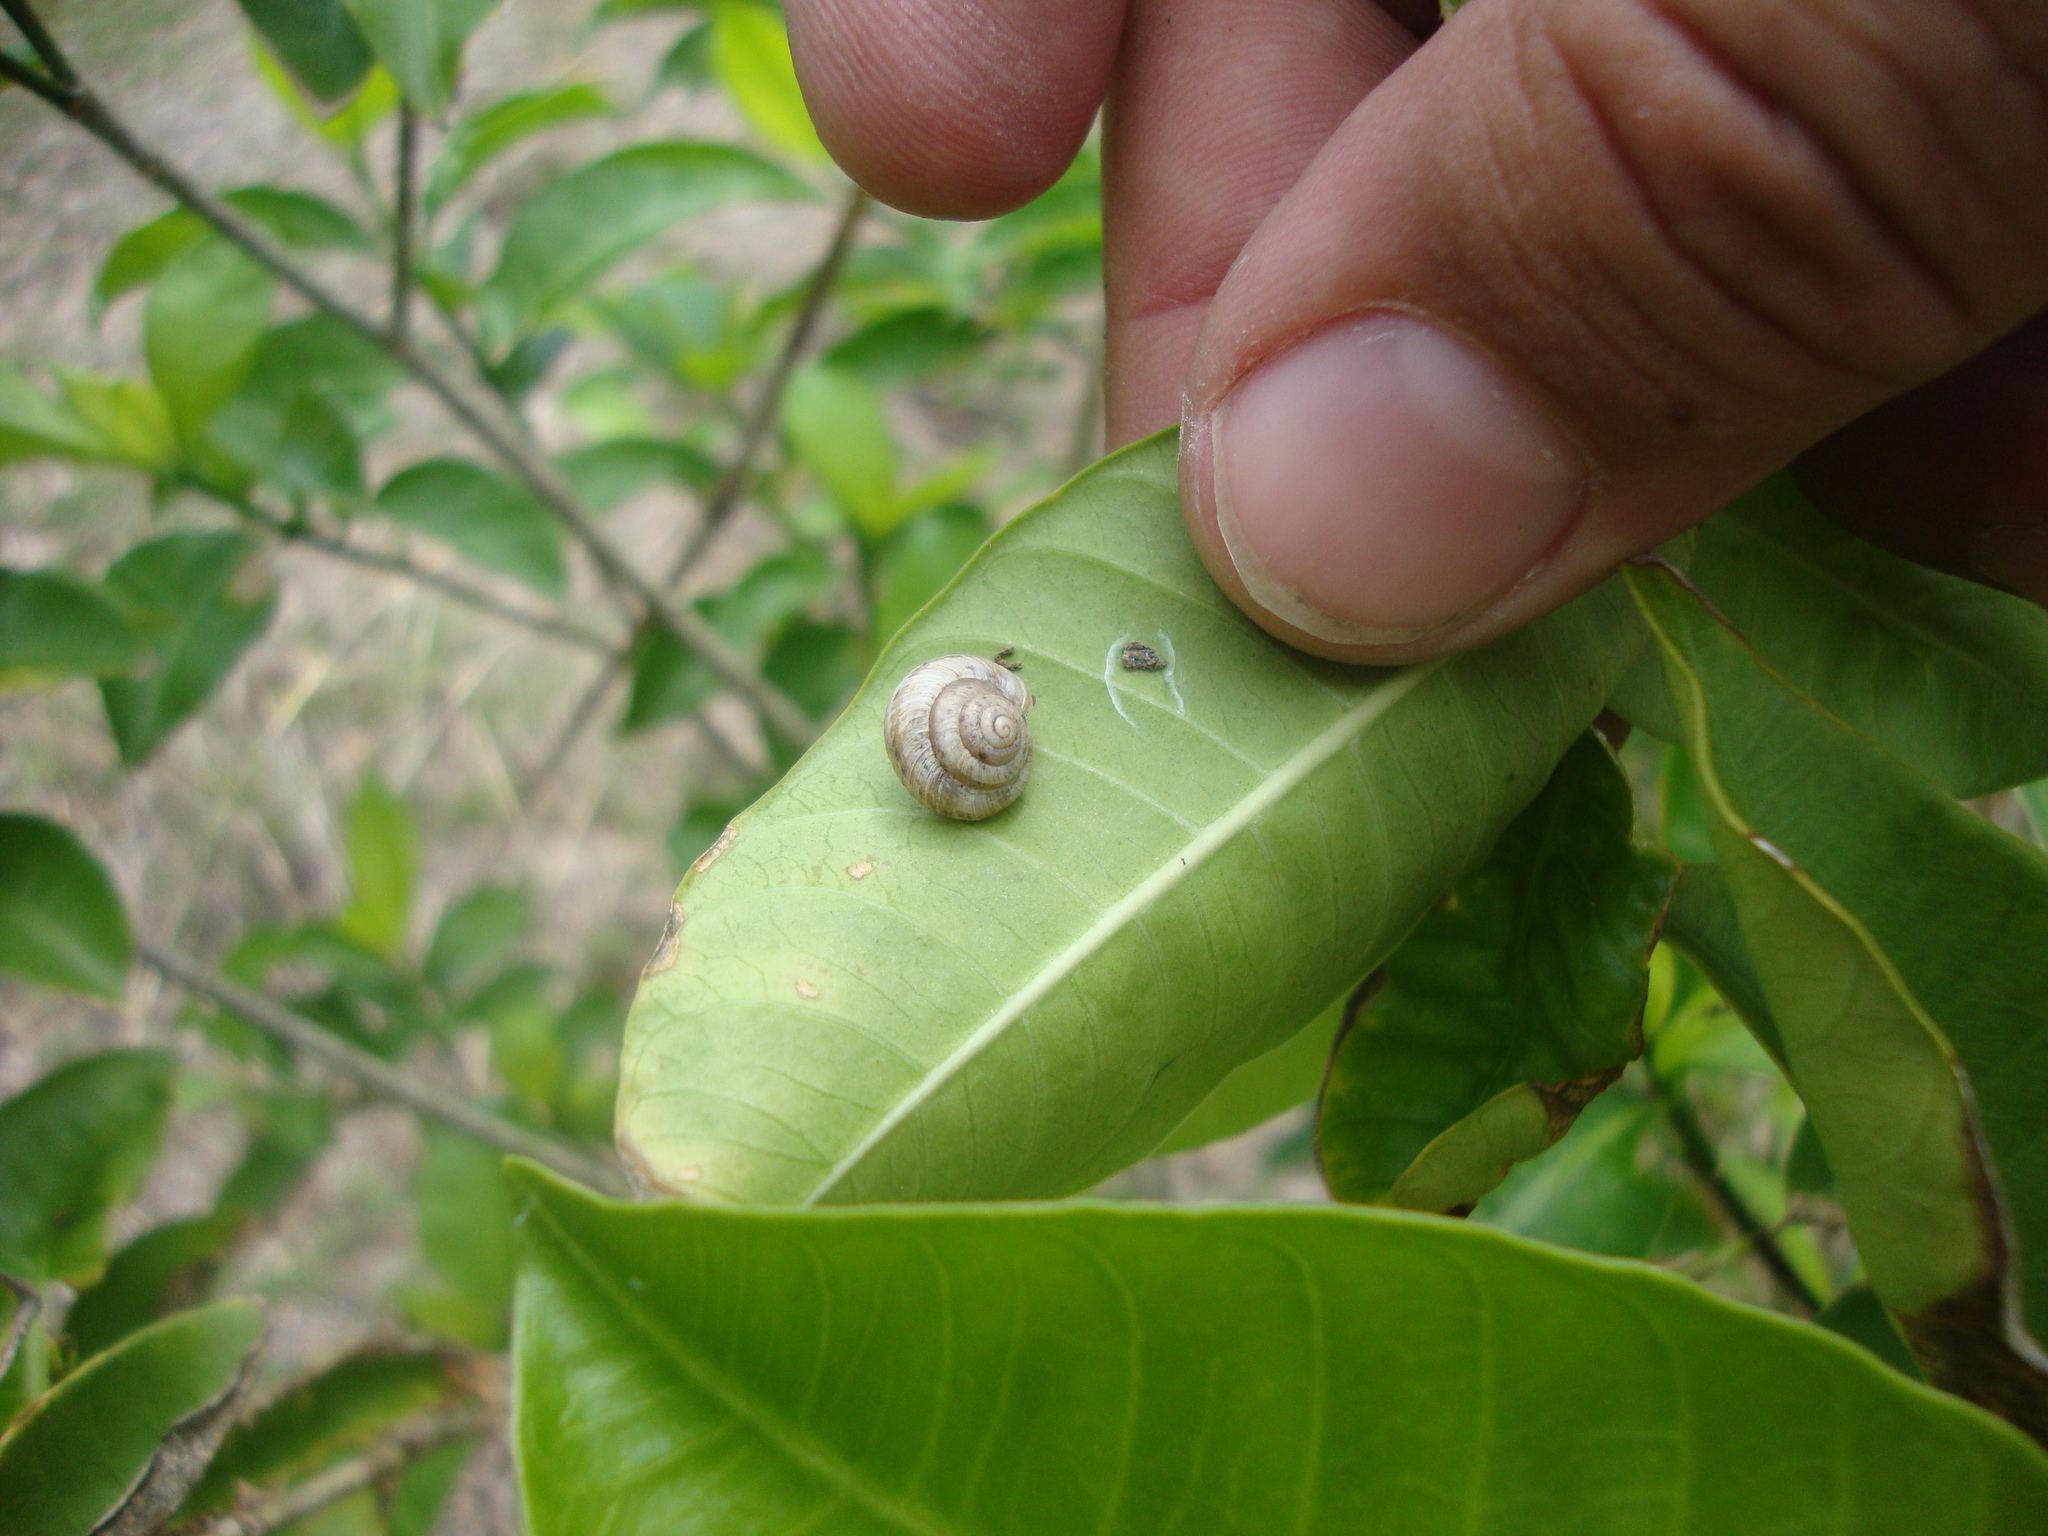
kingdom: Animalia
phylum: Mollusca
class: Gastropoda
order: Stylommatophora
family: Polygyridae
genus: Praticolella
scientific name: Praticolella griseola
